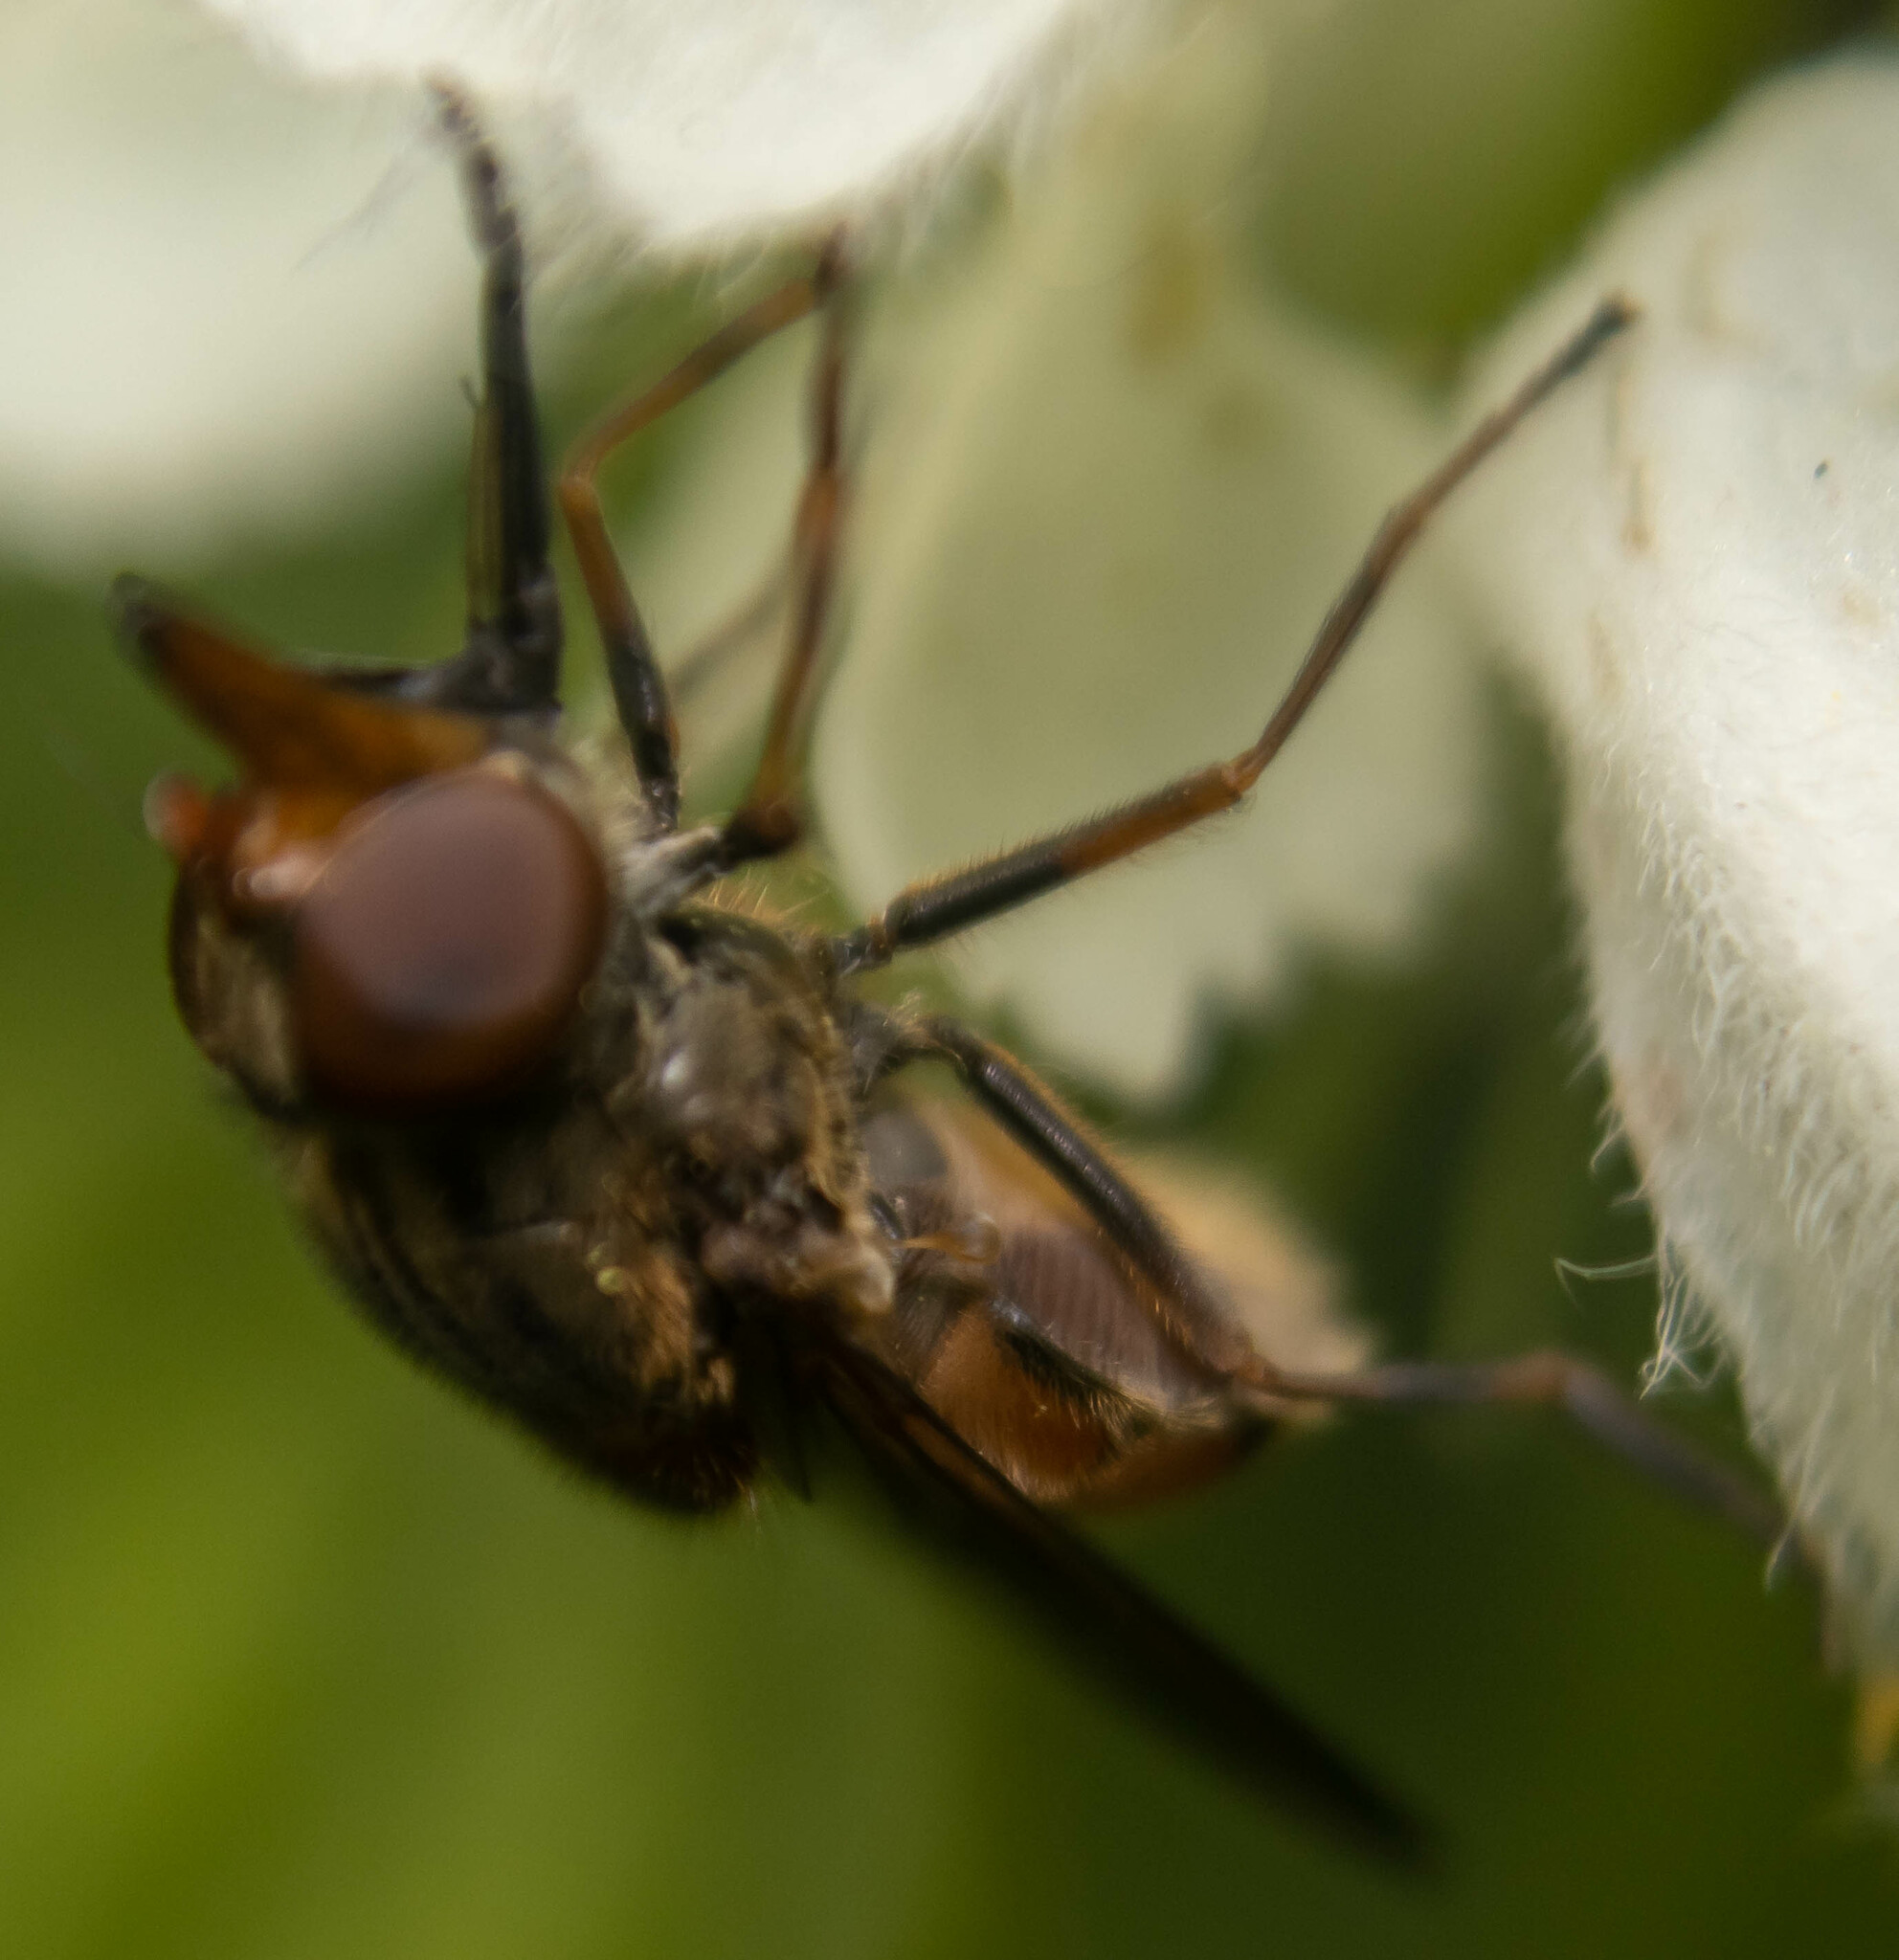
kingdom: Animalia
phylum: Arthropoda
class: Insecta
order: Diptera
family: Syrphidae
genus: Rhingia
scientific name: Rhingia campestris
